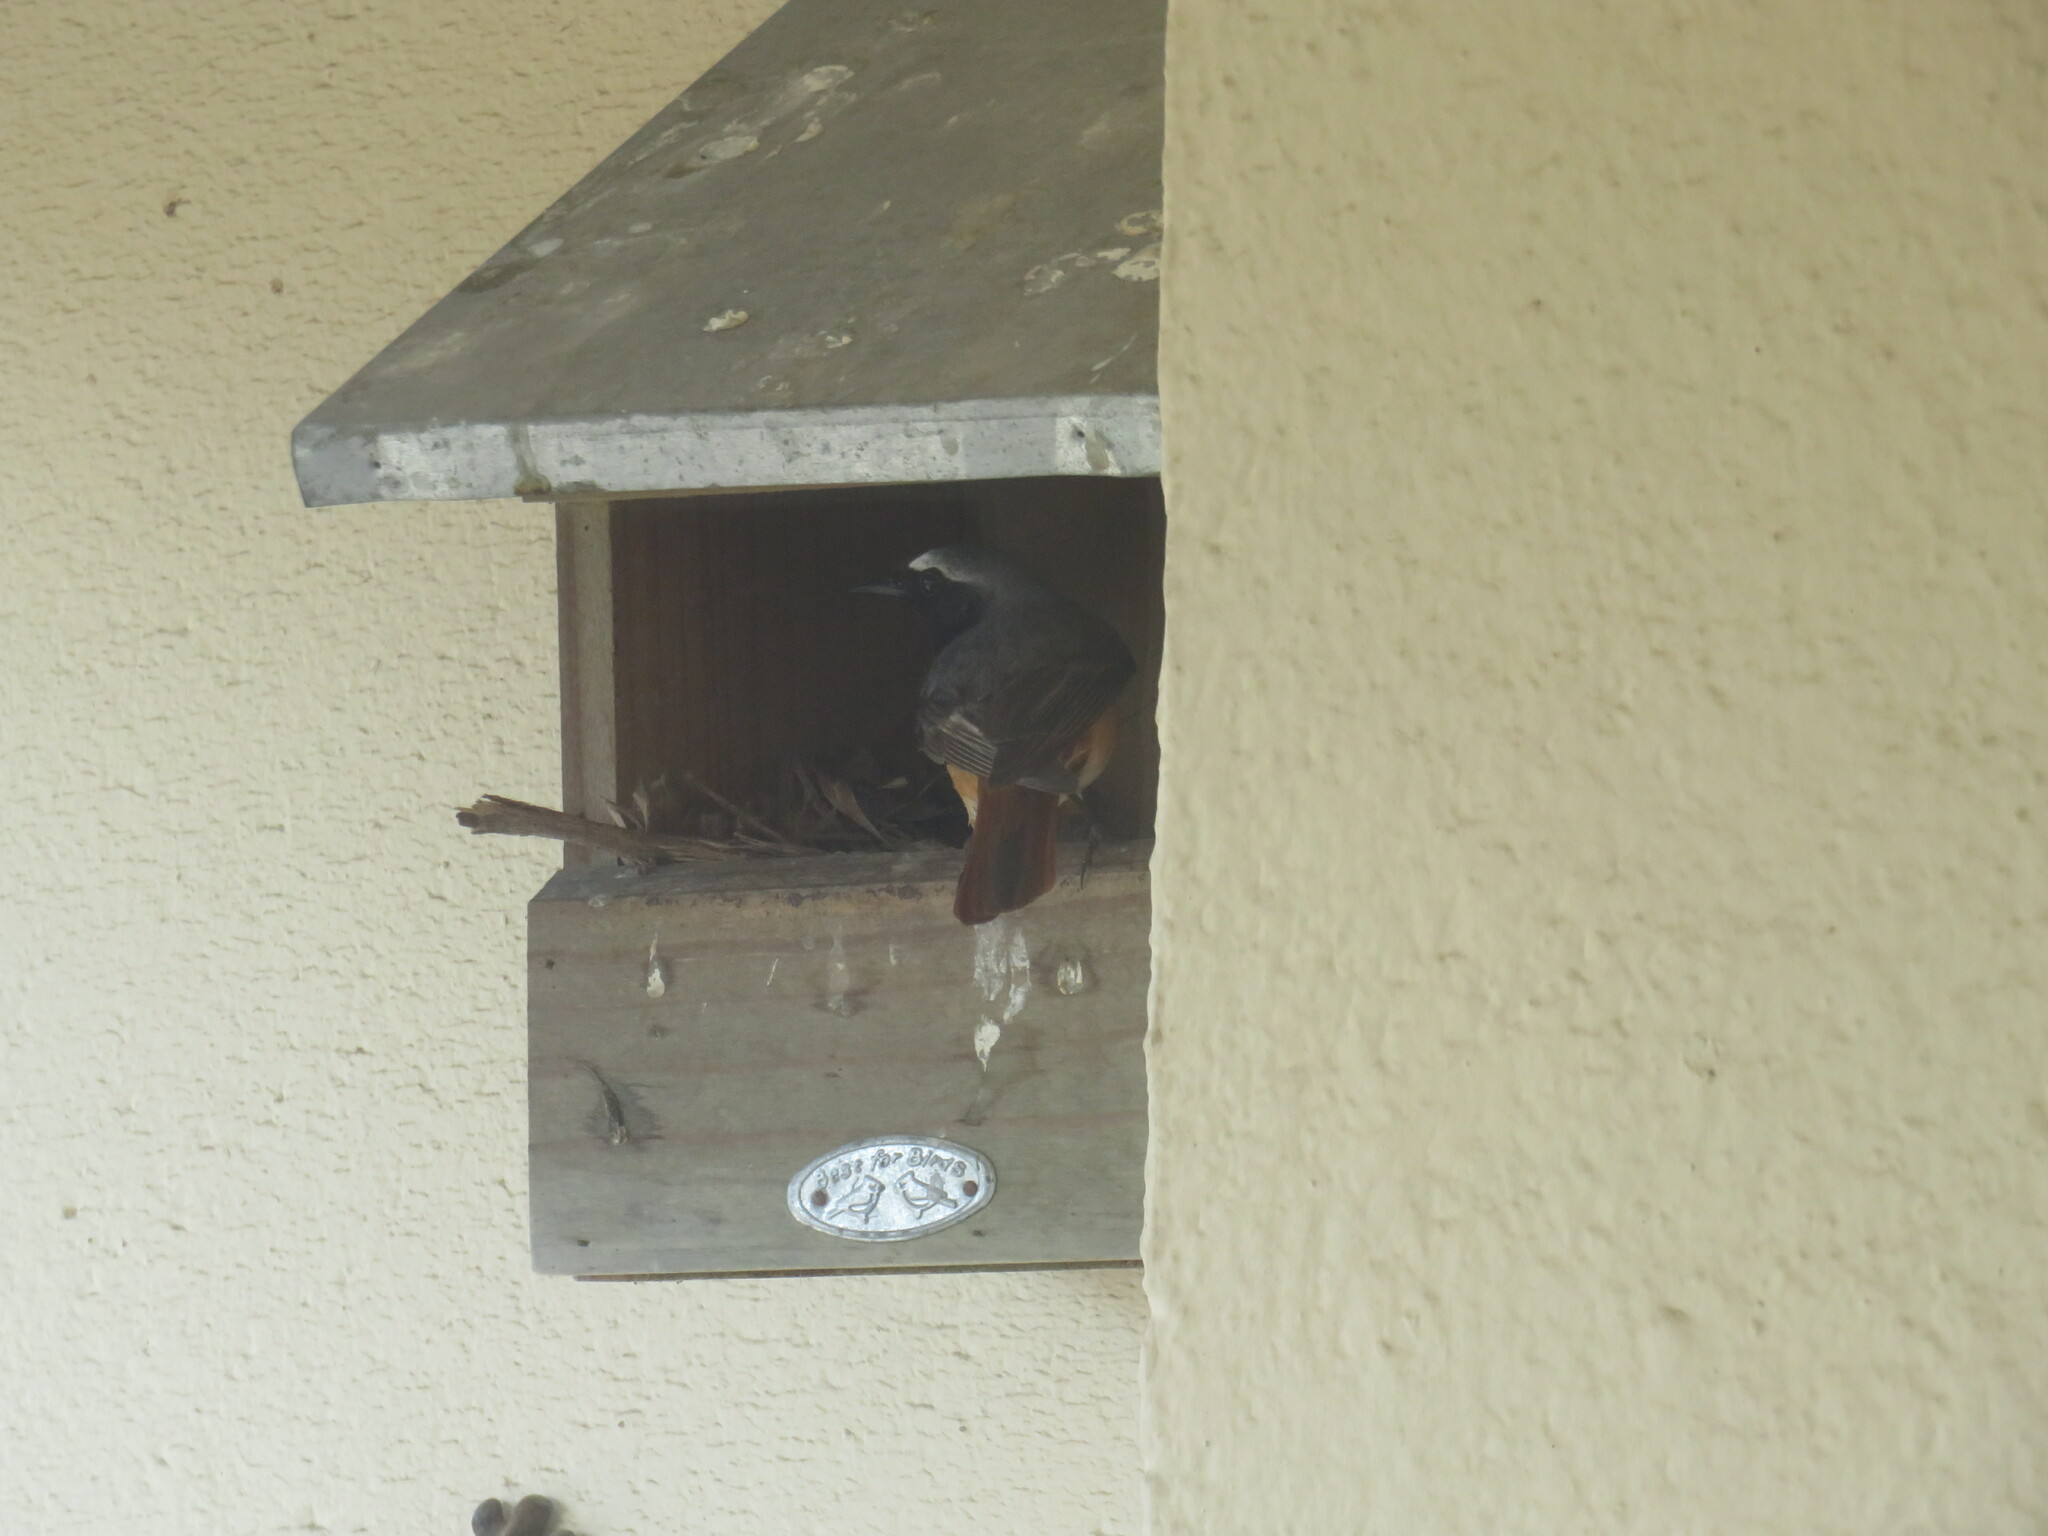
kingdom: Animalia
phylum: Chordata
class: Aves
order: Passeriformes
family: Muscicapidae
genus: Phoenicurus
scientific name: Phoenicurus phoenicurus
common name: Common redstart
